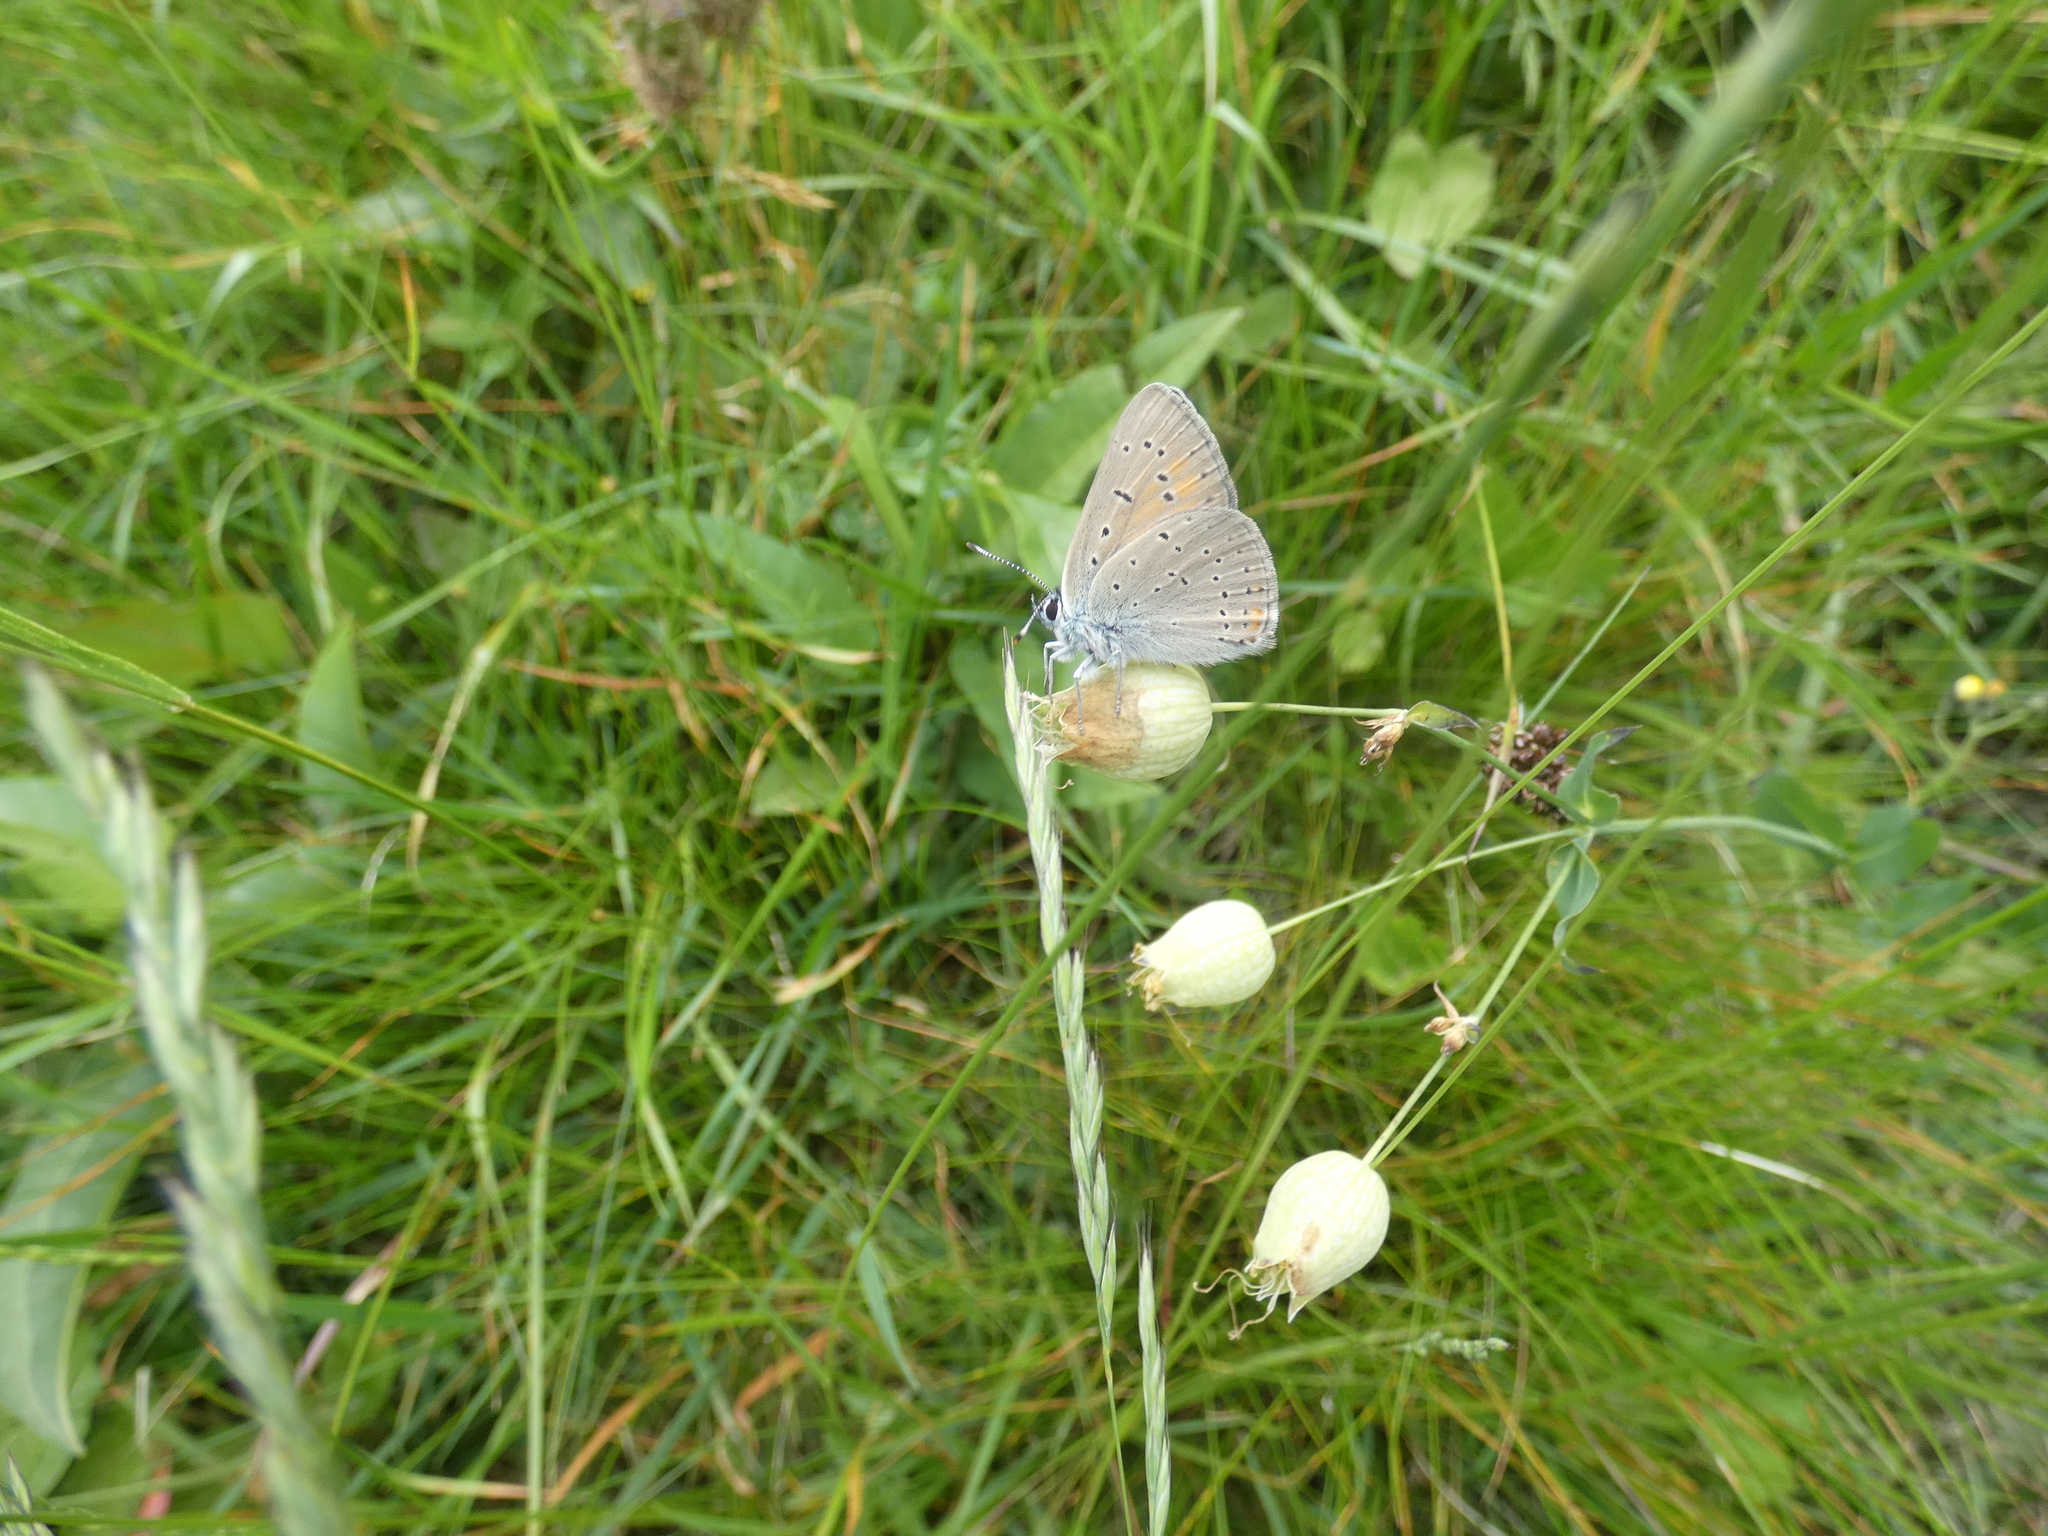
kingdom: Animalia
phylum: Arthropoda
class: Insecta
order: Lepidoptera
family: Lycaenidae
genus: Palaeochrysophanus
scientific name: Palaeochrysophanus hippothoe
